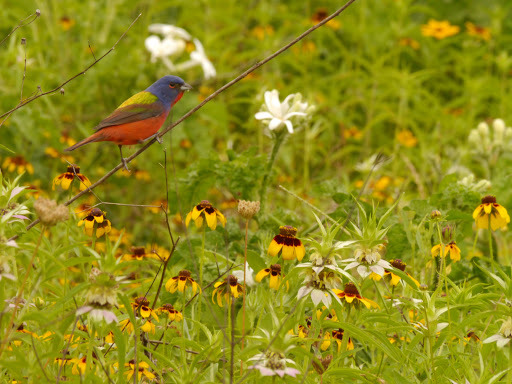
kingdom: Animalia
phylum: Chordata
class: Aves
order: Passeriformes
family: Cardinalidae
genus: Passerina
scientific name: Passerina ciris
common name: Painted bunting
